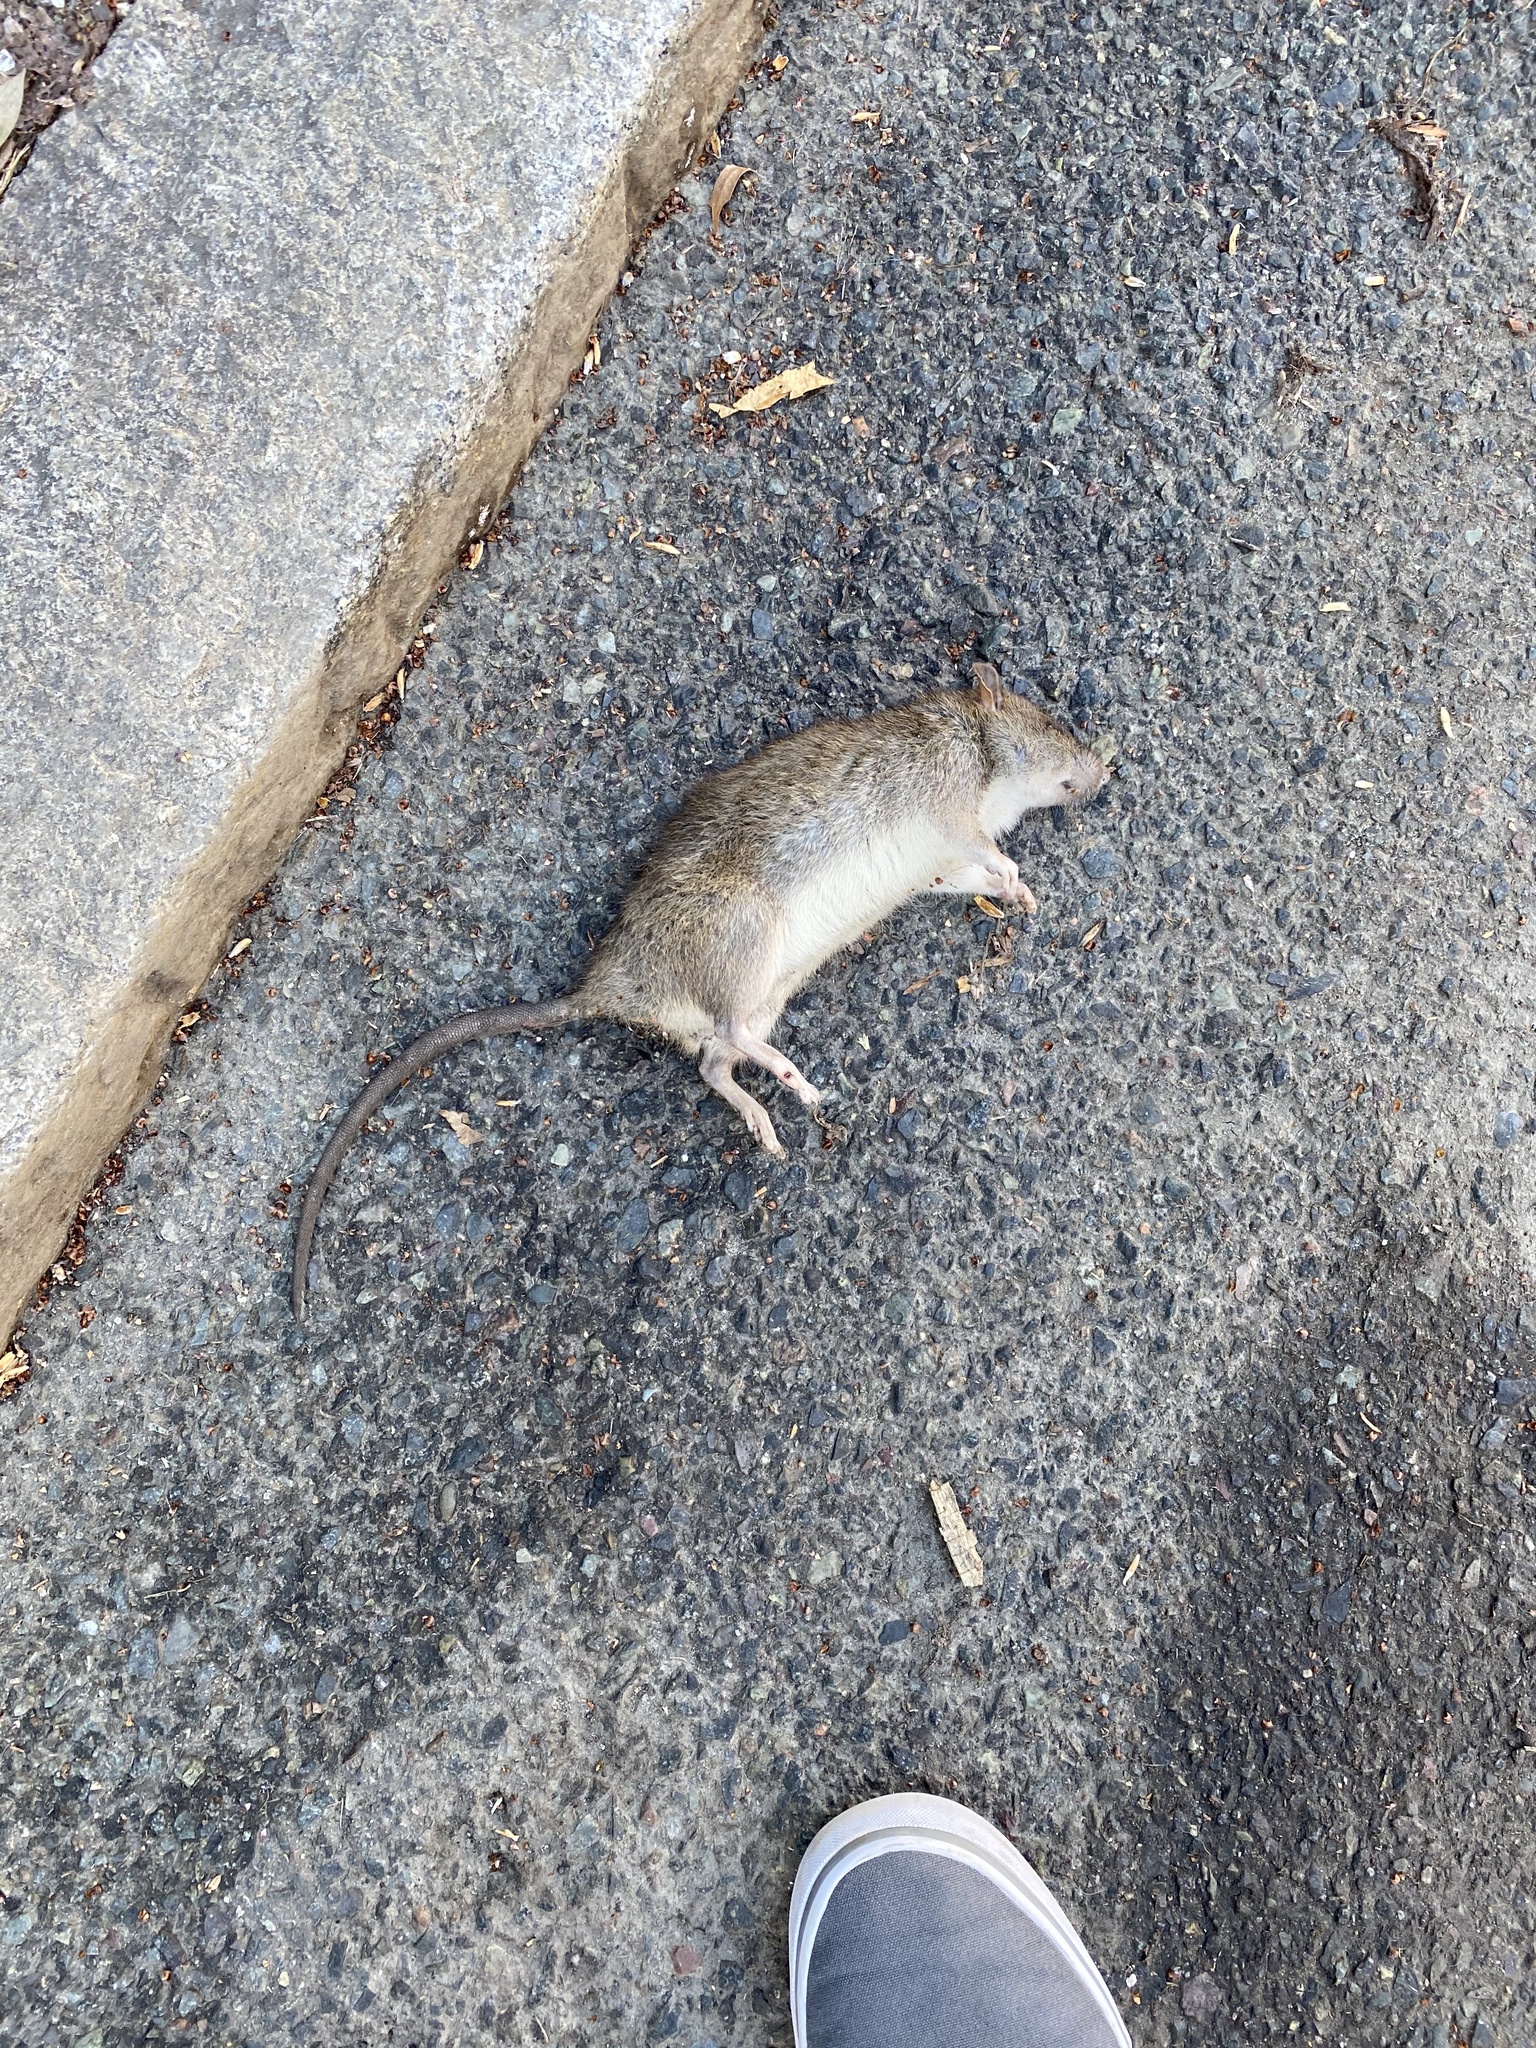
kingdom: Animalia
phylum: Chordata
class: Mammalia
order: Rodentia
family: Muridae
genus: Rattus
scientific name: Rattus norvegicus
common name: Brown rat
